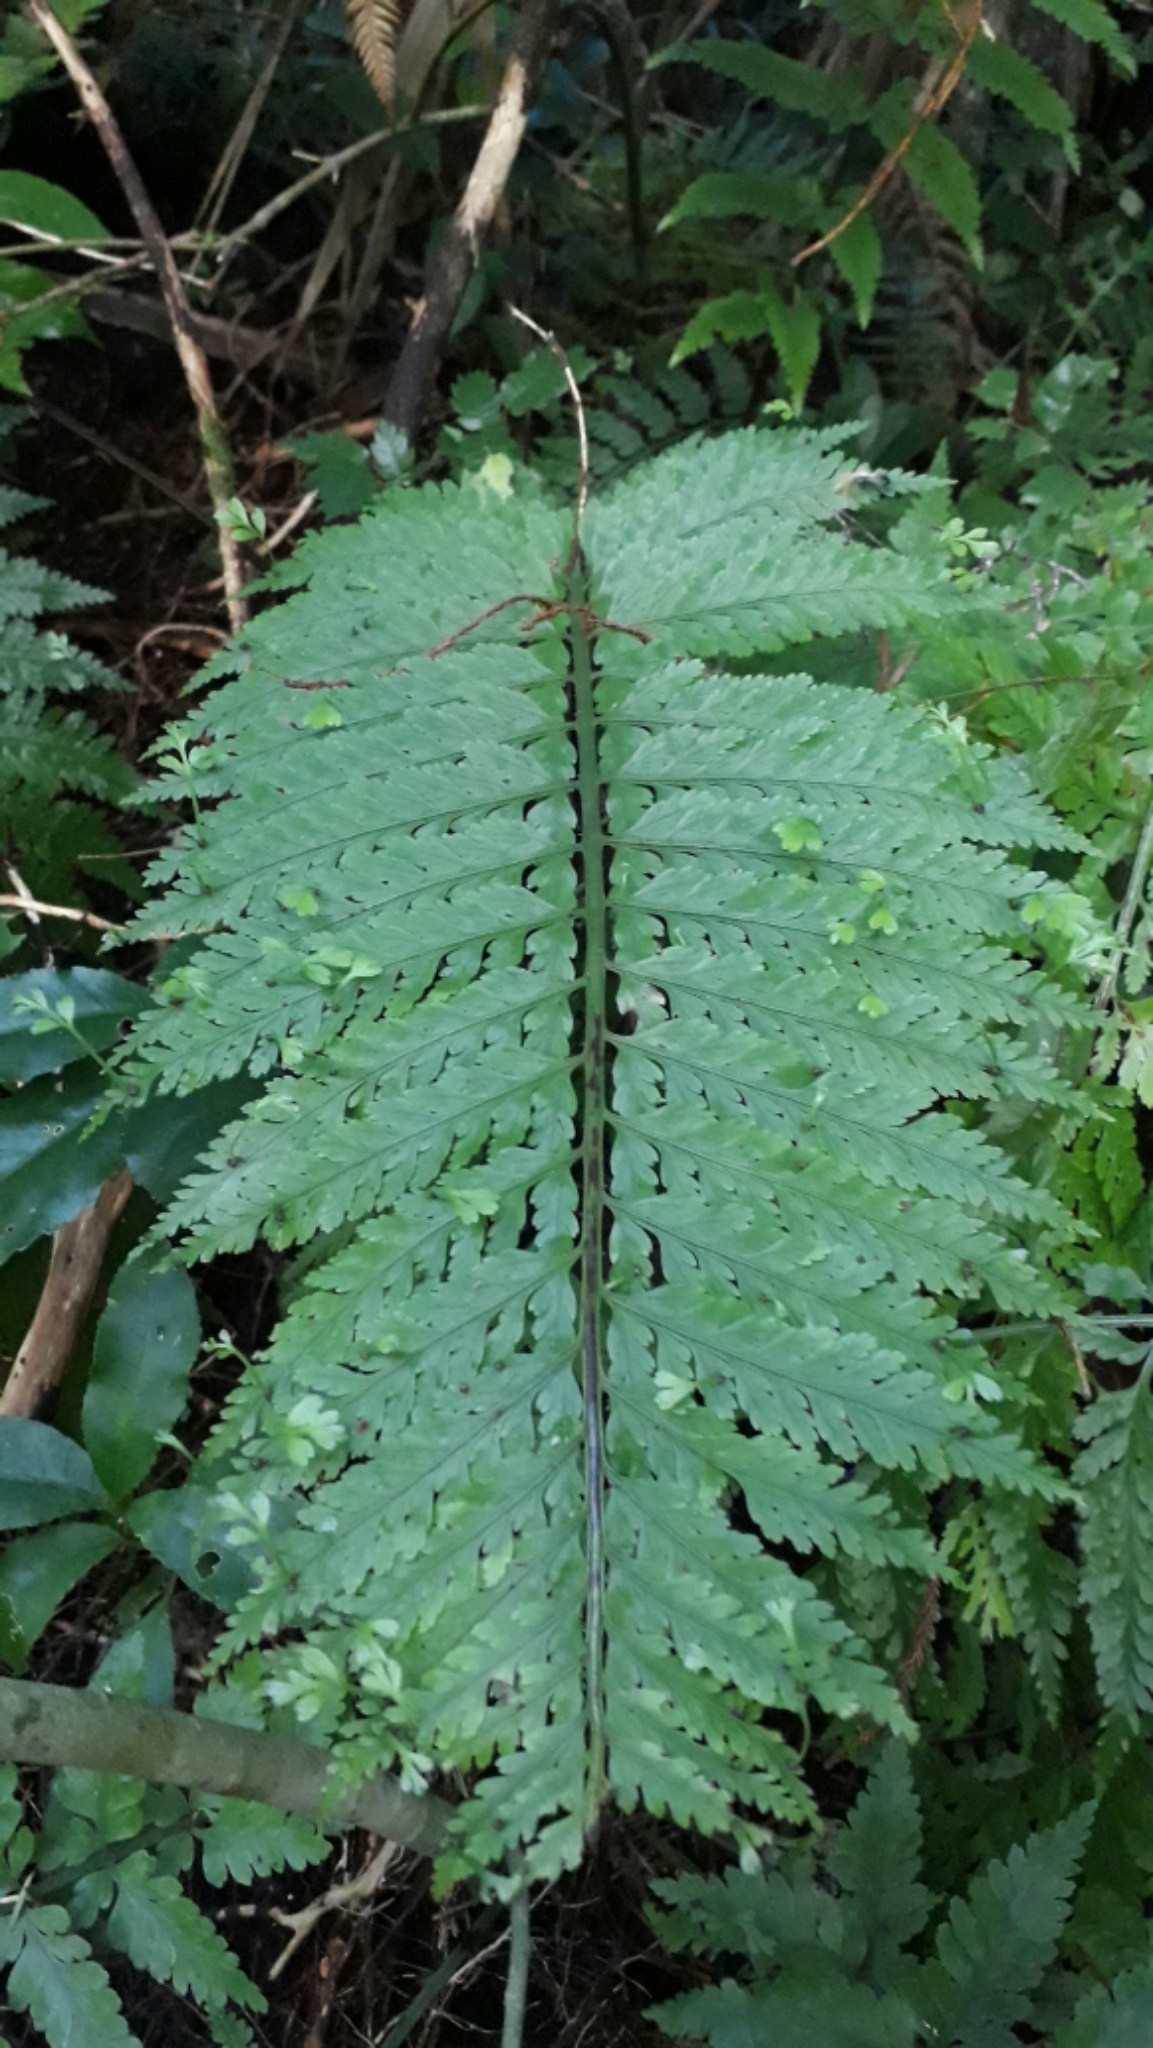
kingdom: Plantae
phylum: Tracheophyta
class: Polypodiopsida
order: Polypodiales
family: Aspleniaceae
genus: Asplenium
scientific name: Asplenium bulbiferum
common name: Mother fern
